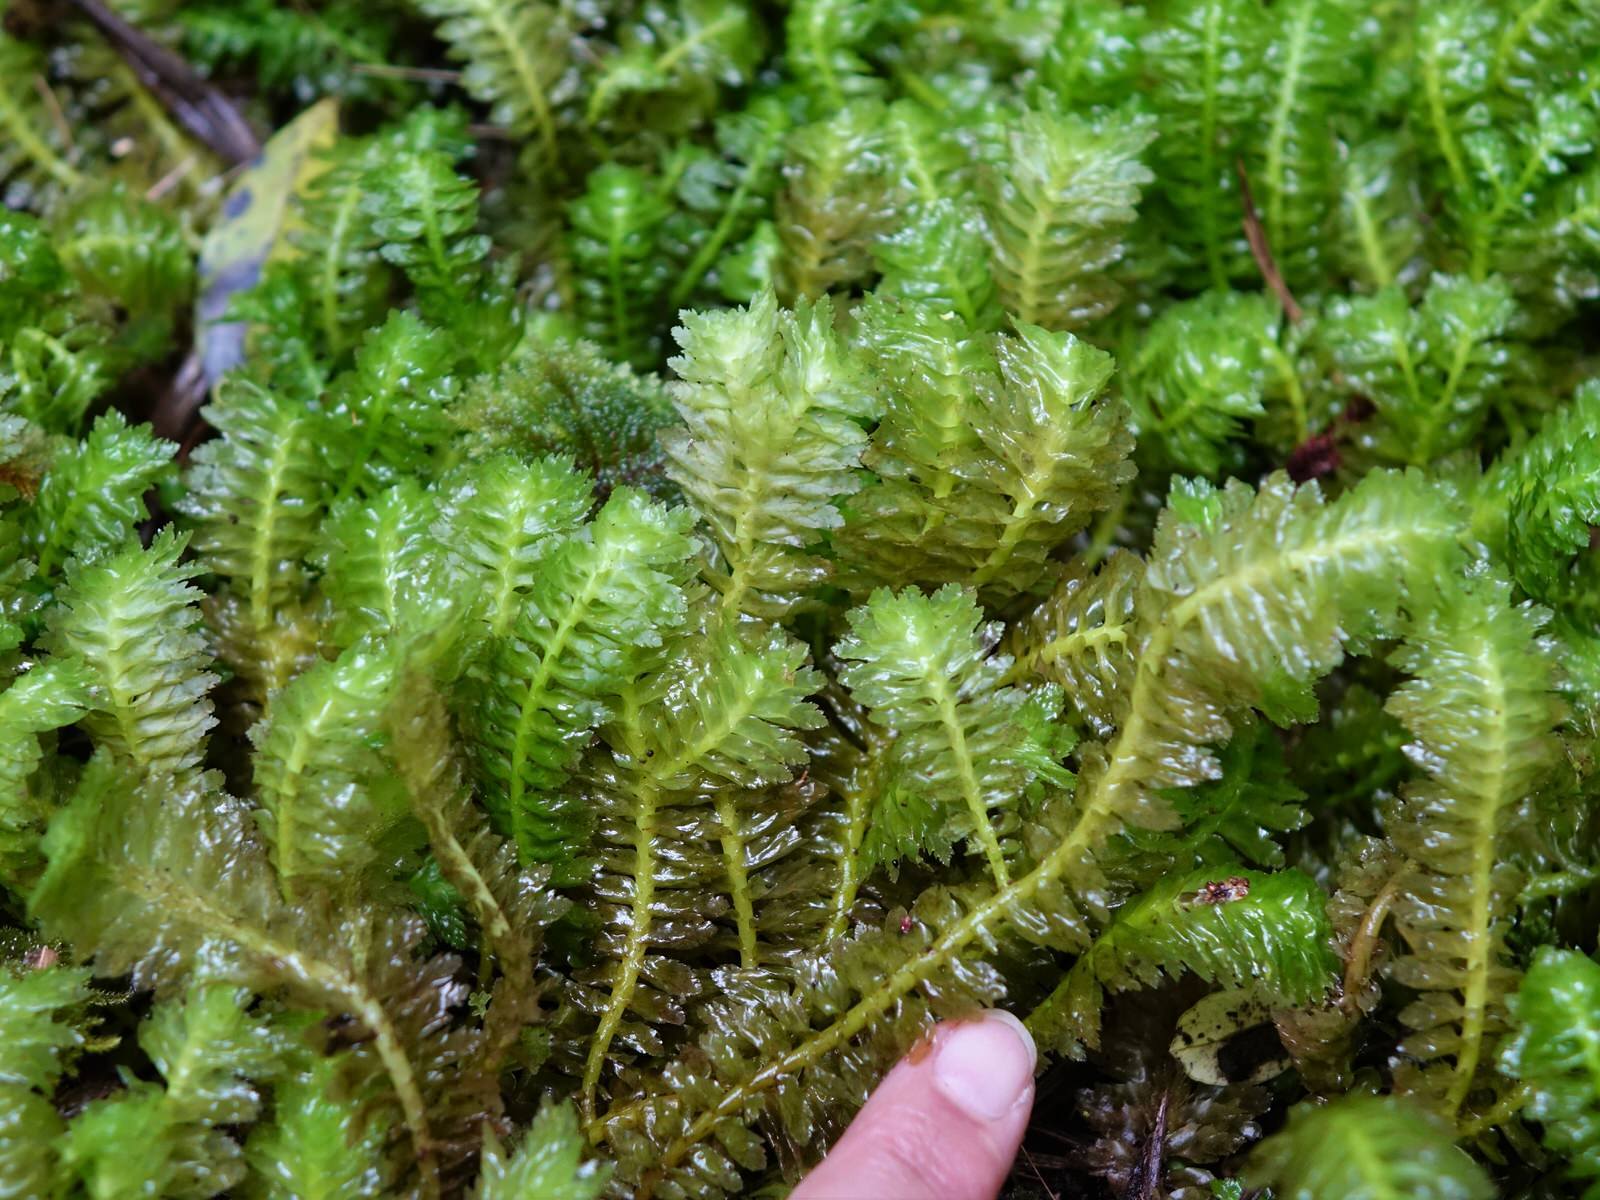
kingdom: Plantae
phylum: Marchantiophyta
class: Jungermanniopsida
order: Jungermanniales
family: Schistochilaceae
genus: Schistochila
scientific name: Schistochila appendiculata
